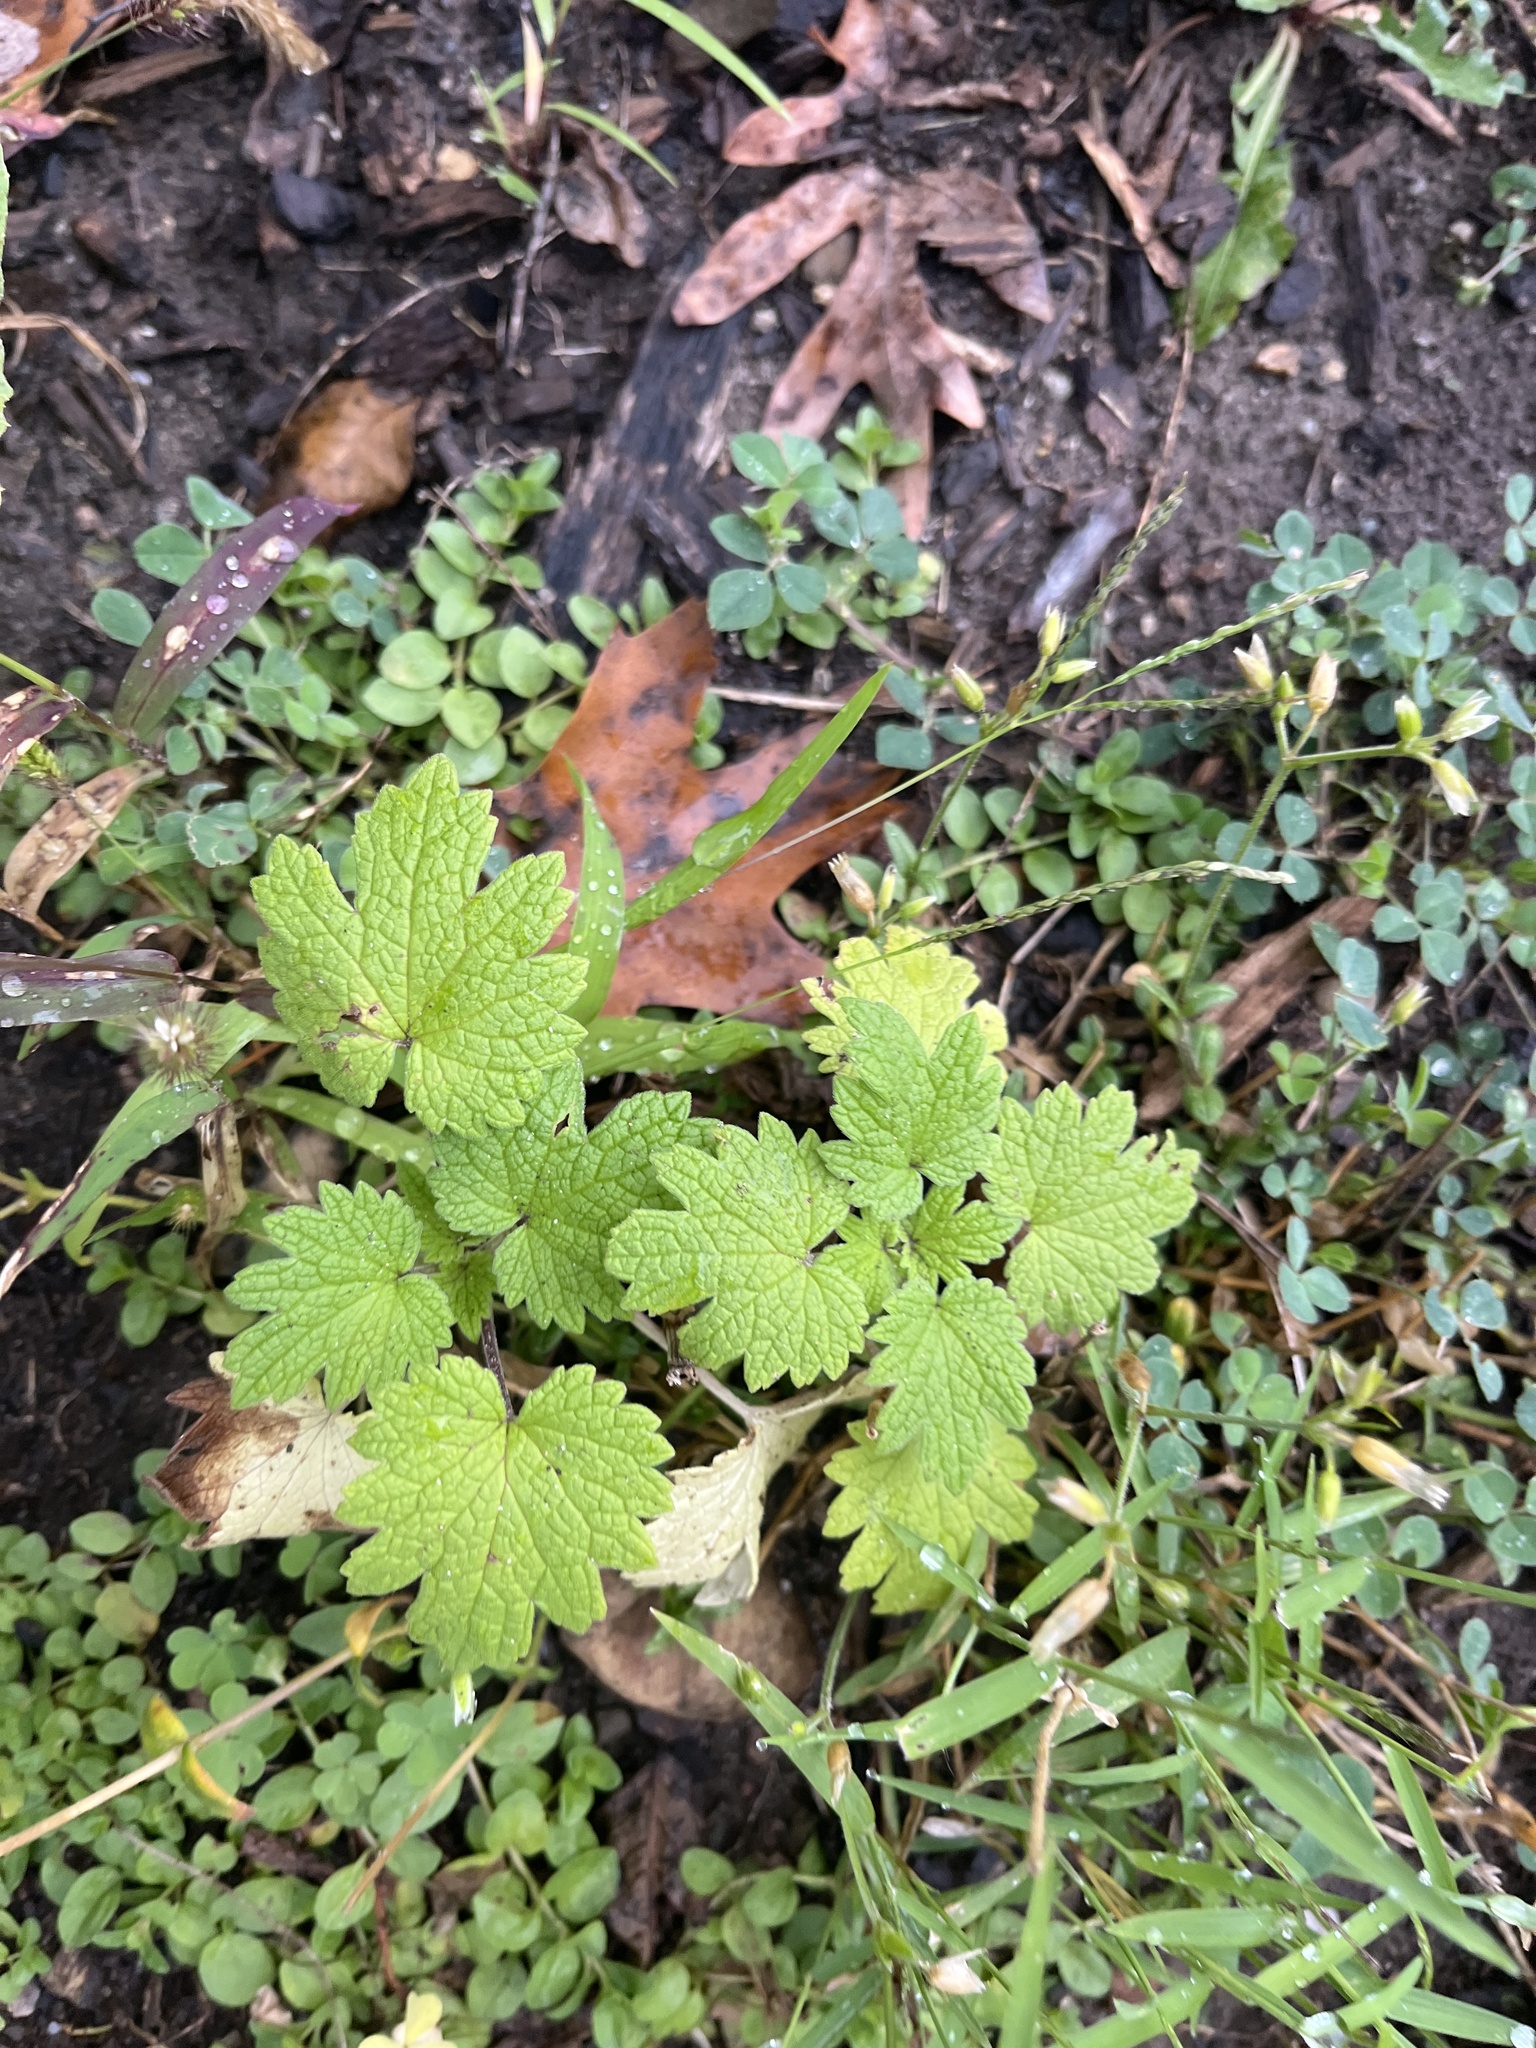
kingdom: Plantae
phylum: Tracheophyta
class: Magnoliopsida
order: Lamiales
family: Lamiaceae
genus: Leonurus
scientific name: Leonurus cardiaca
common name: Motherwort
